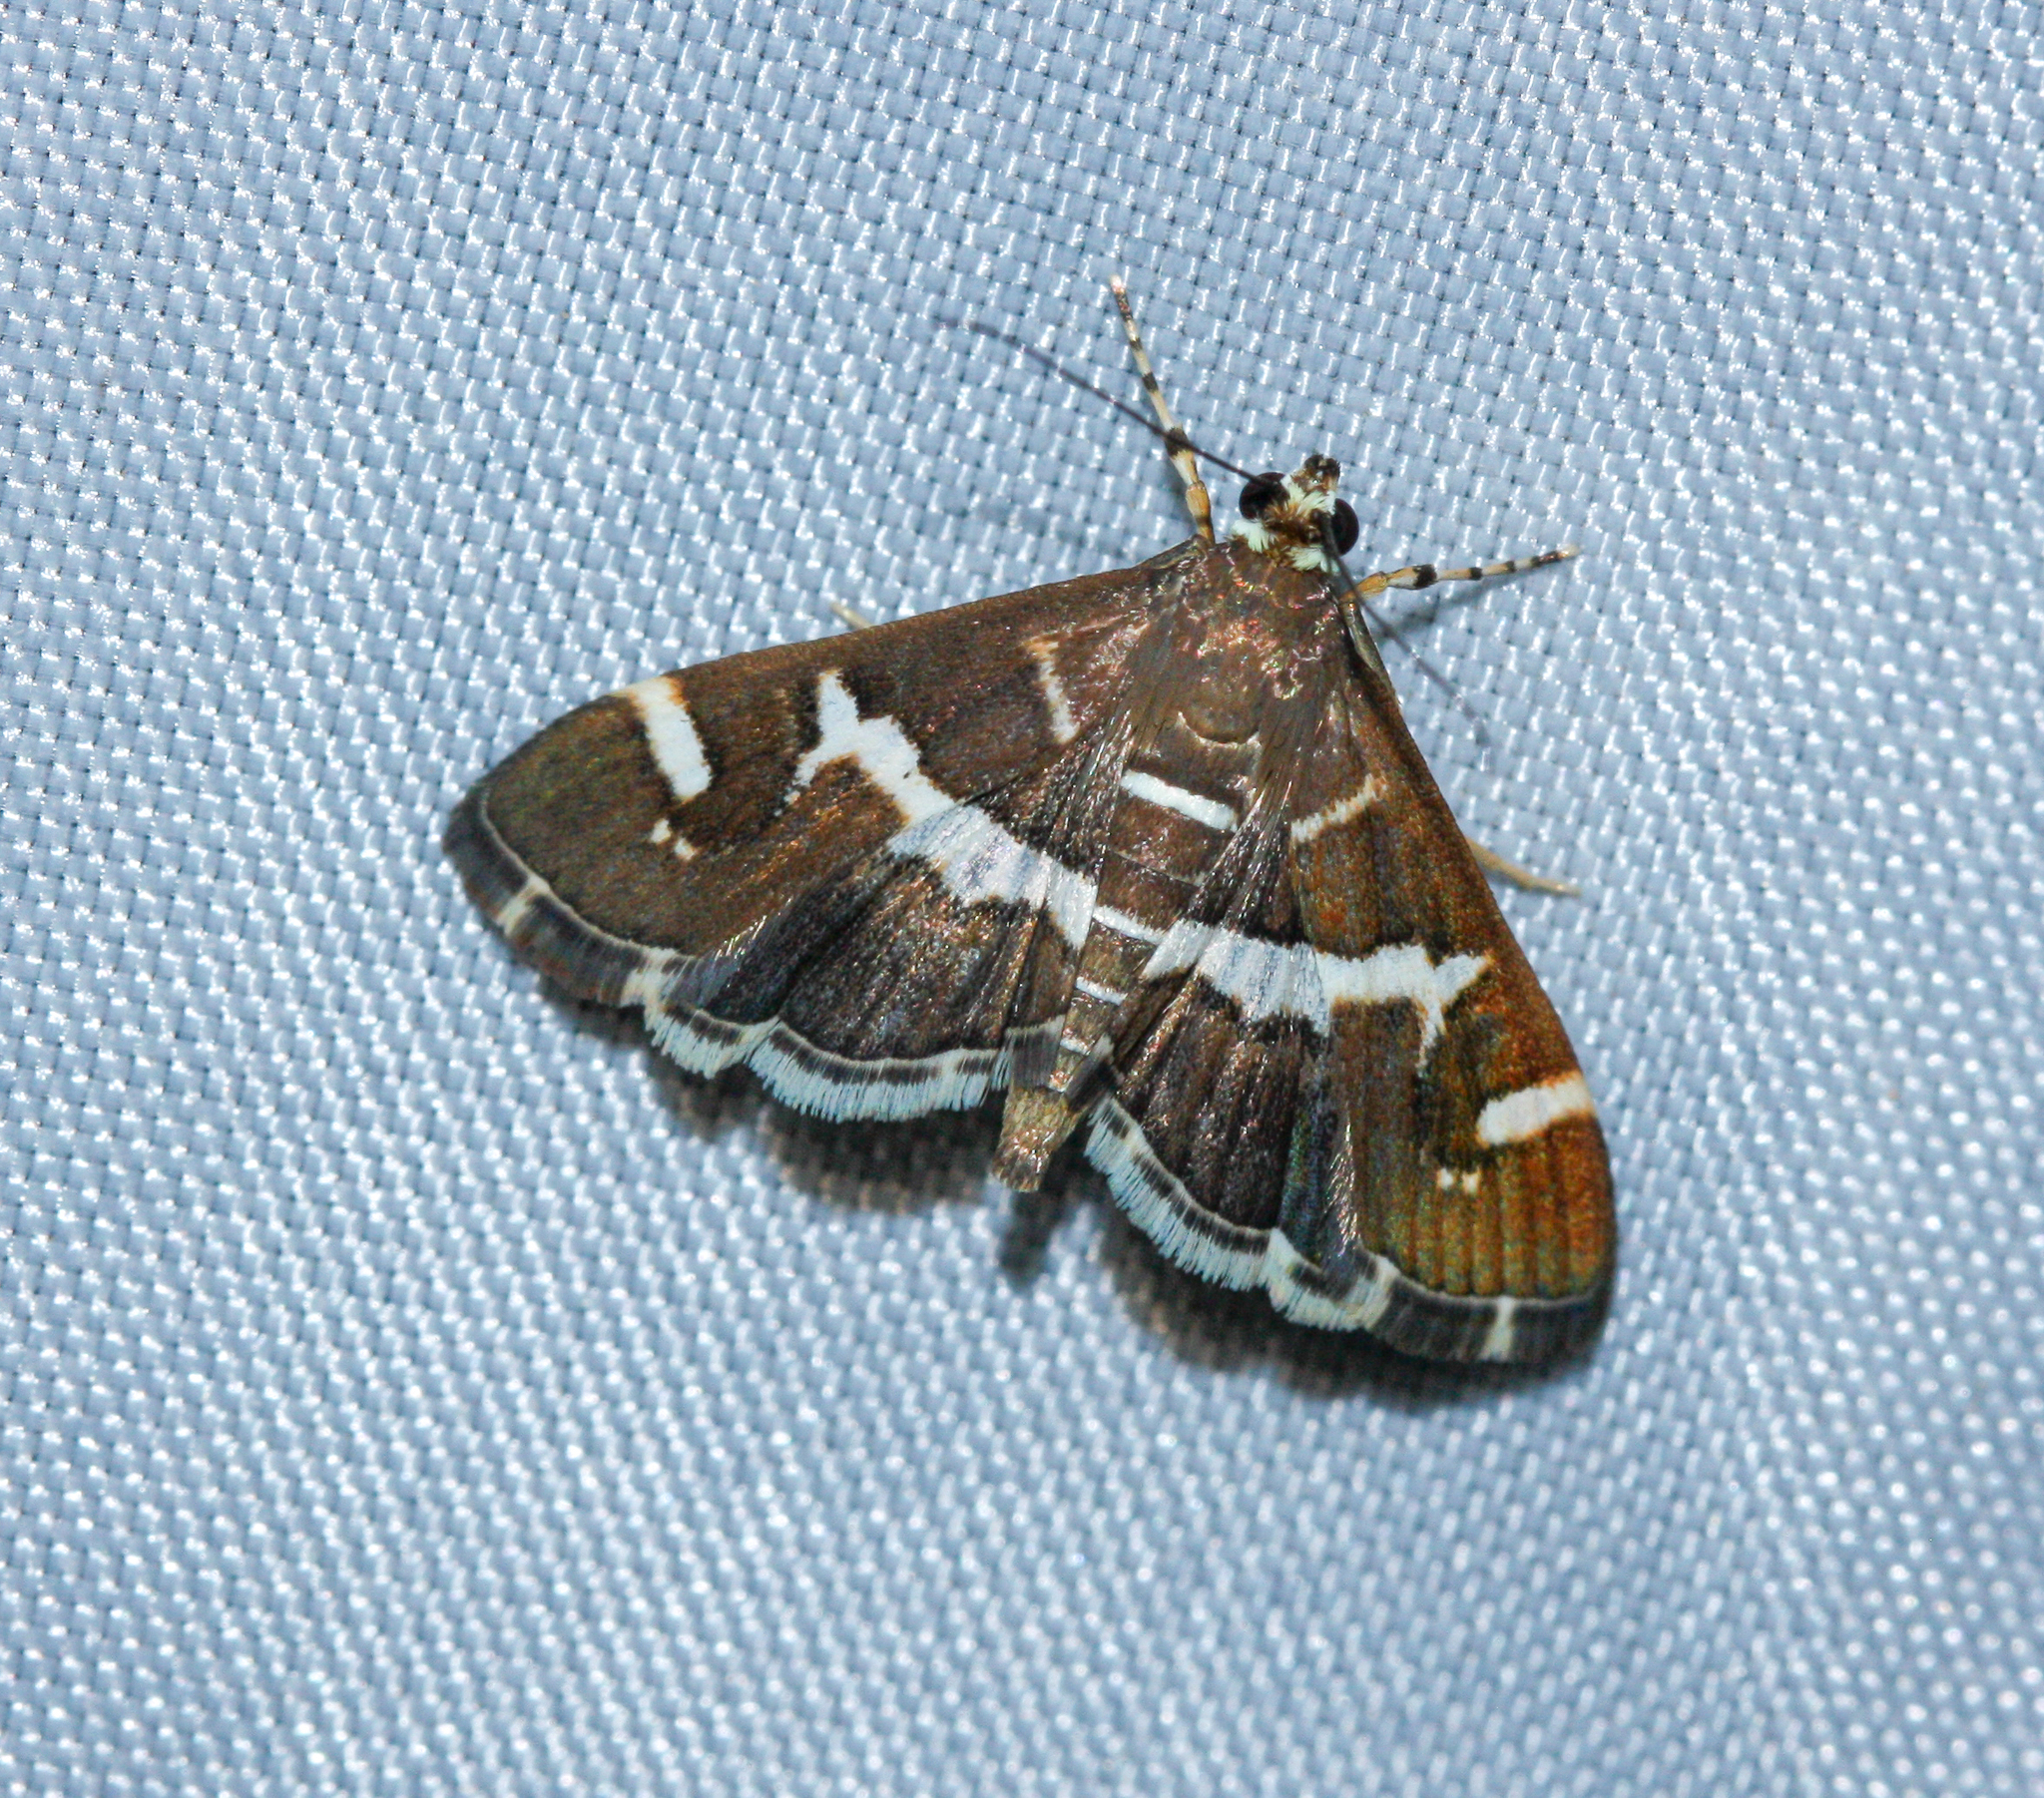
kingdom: Animalia
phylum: Arthropoda
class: Insecta
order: Lepidoptera
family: Crambidae
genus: Spoladea
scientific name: Spoladea recurvalis
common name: Beet webworm moth
